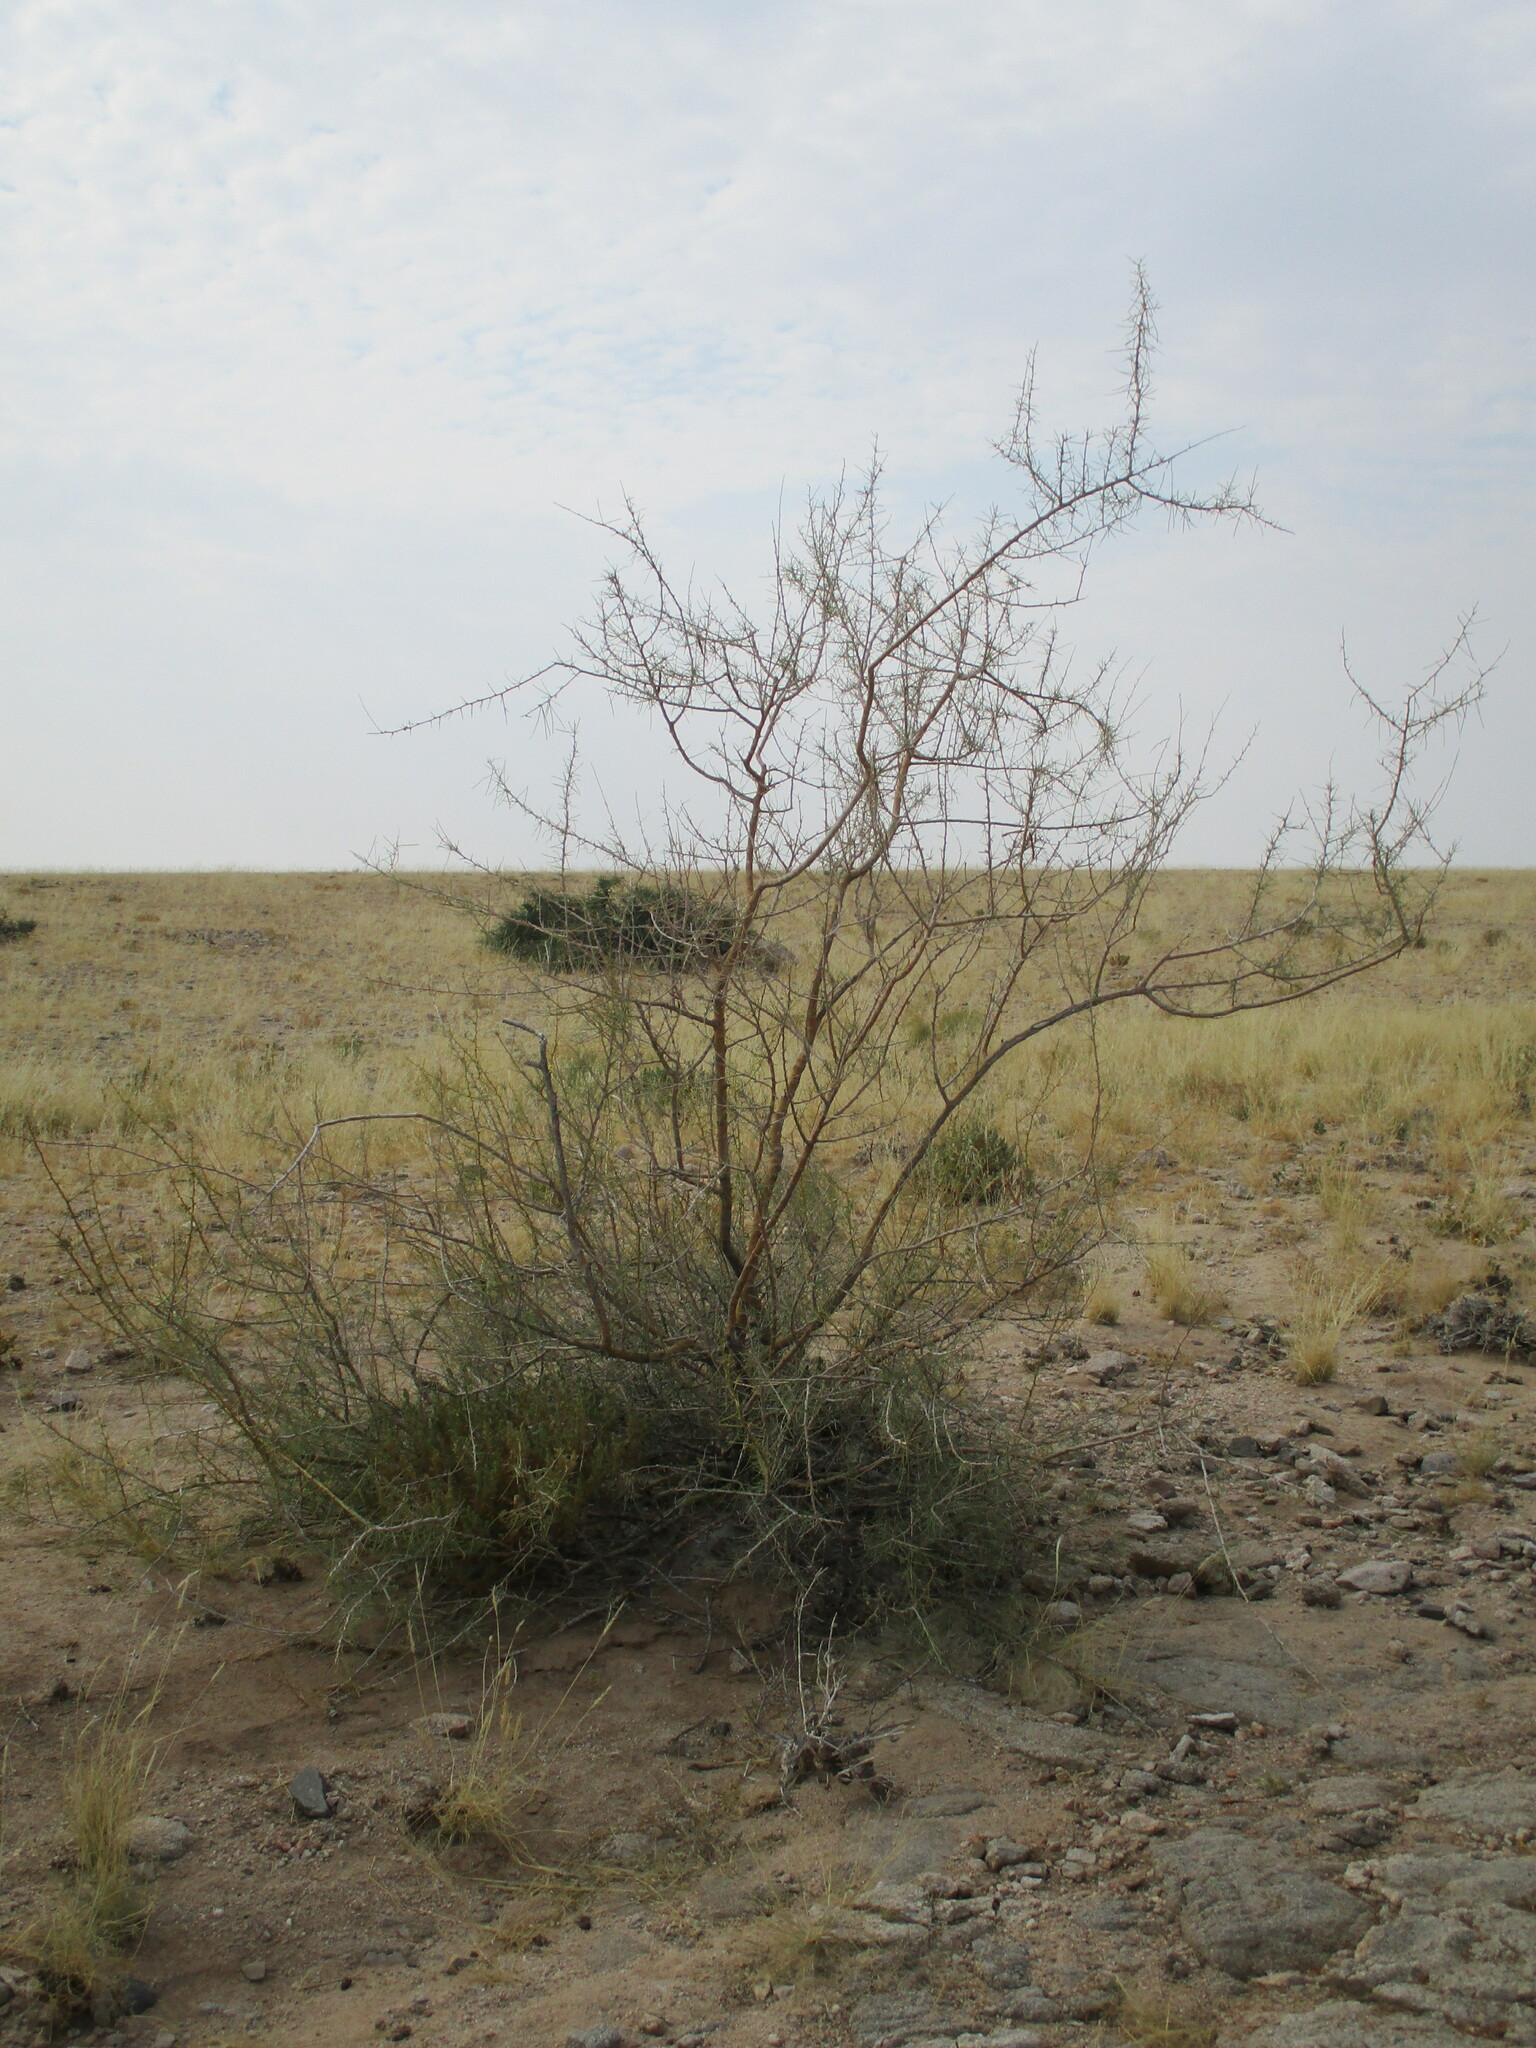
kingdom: Plantae
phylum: Tracheophyta
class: Magnoliopsida
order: Fabales
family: Fabaceae
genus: Parkinsonia
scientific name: Parkinsonia africana
